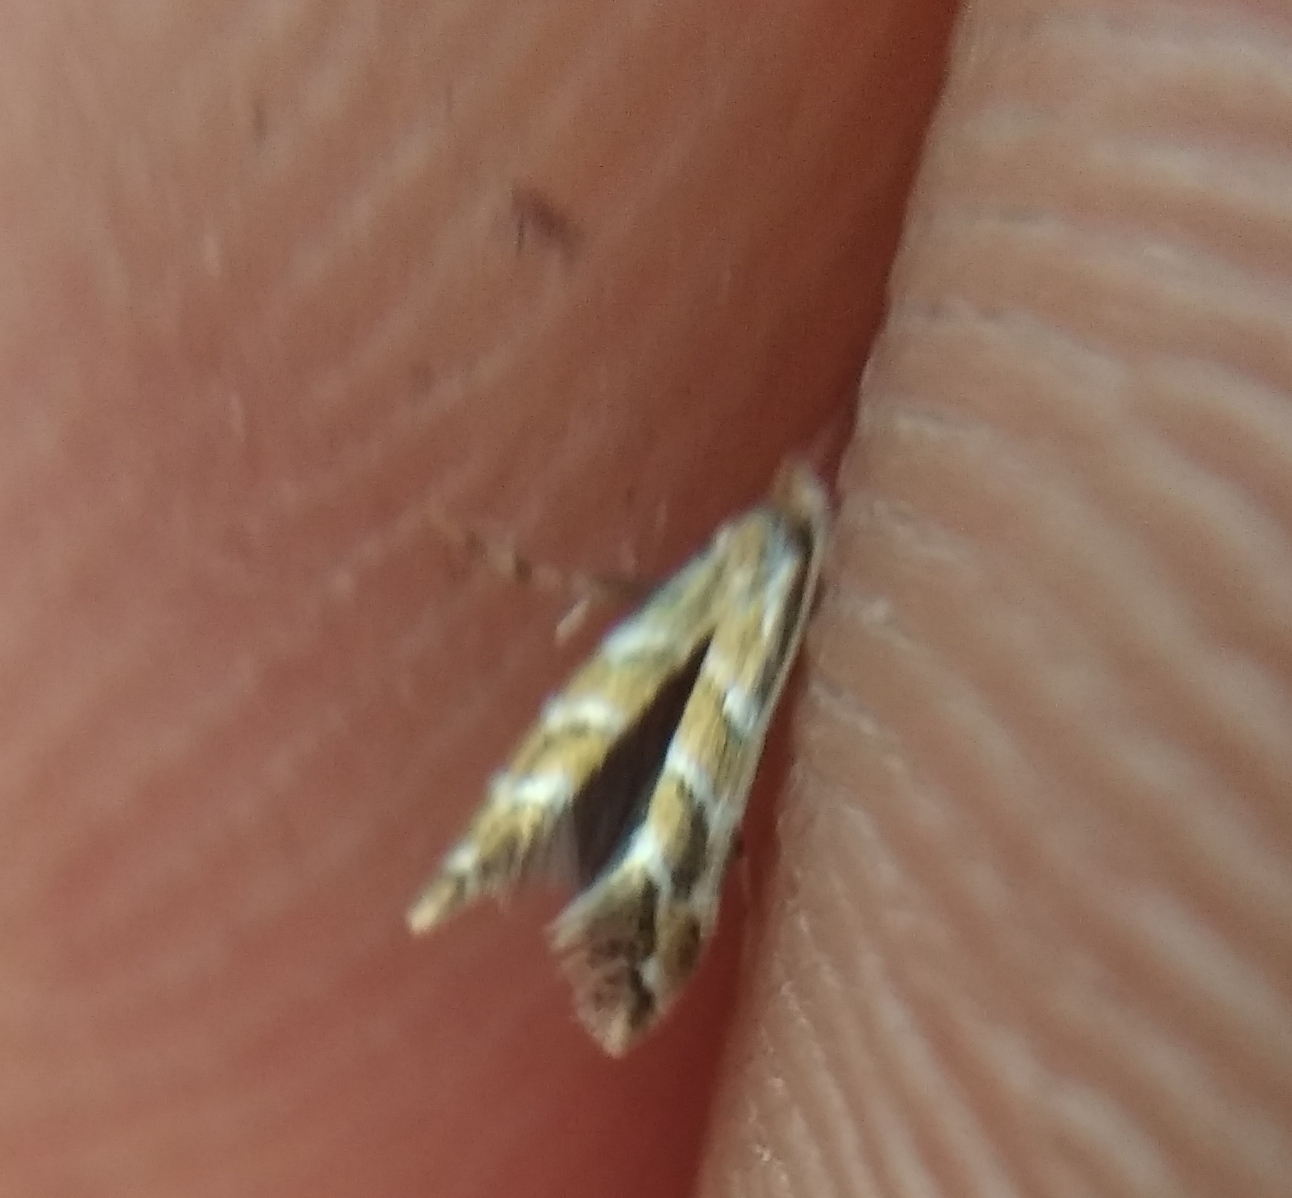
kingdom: Animalia
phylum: Arthropoda
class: Insecta
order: Lepidoptera
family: Gracillariidae
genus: Cameraria
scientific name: Cameraria ohridella
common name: Horse-chestnut leaf-miner
